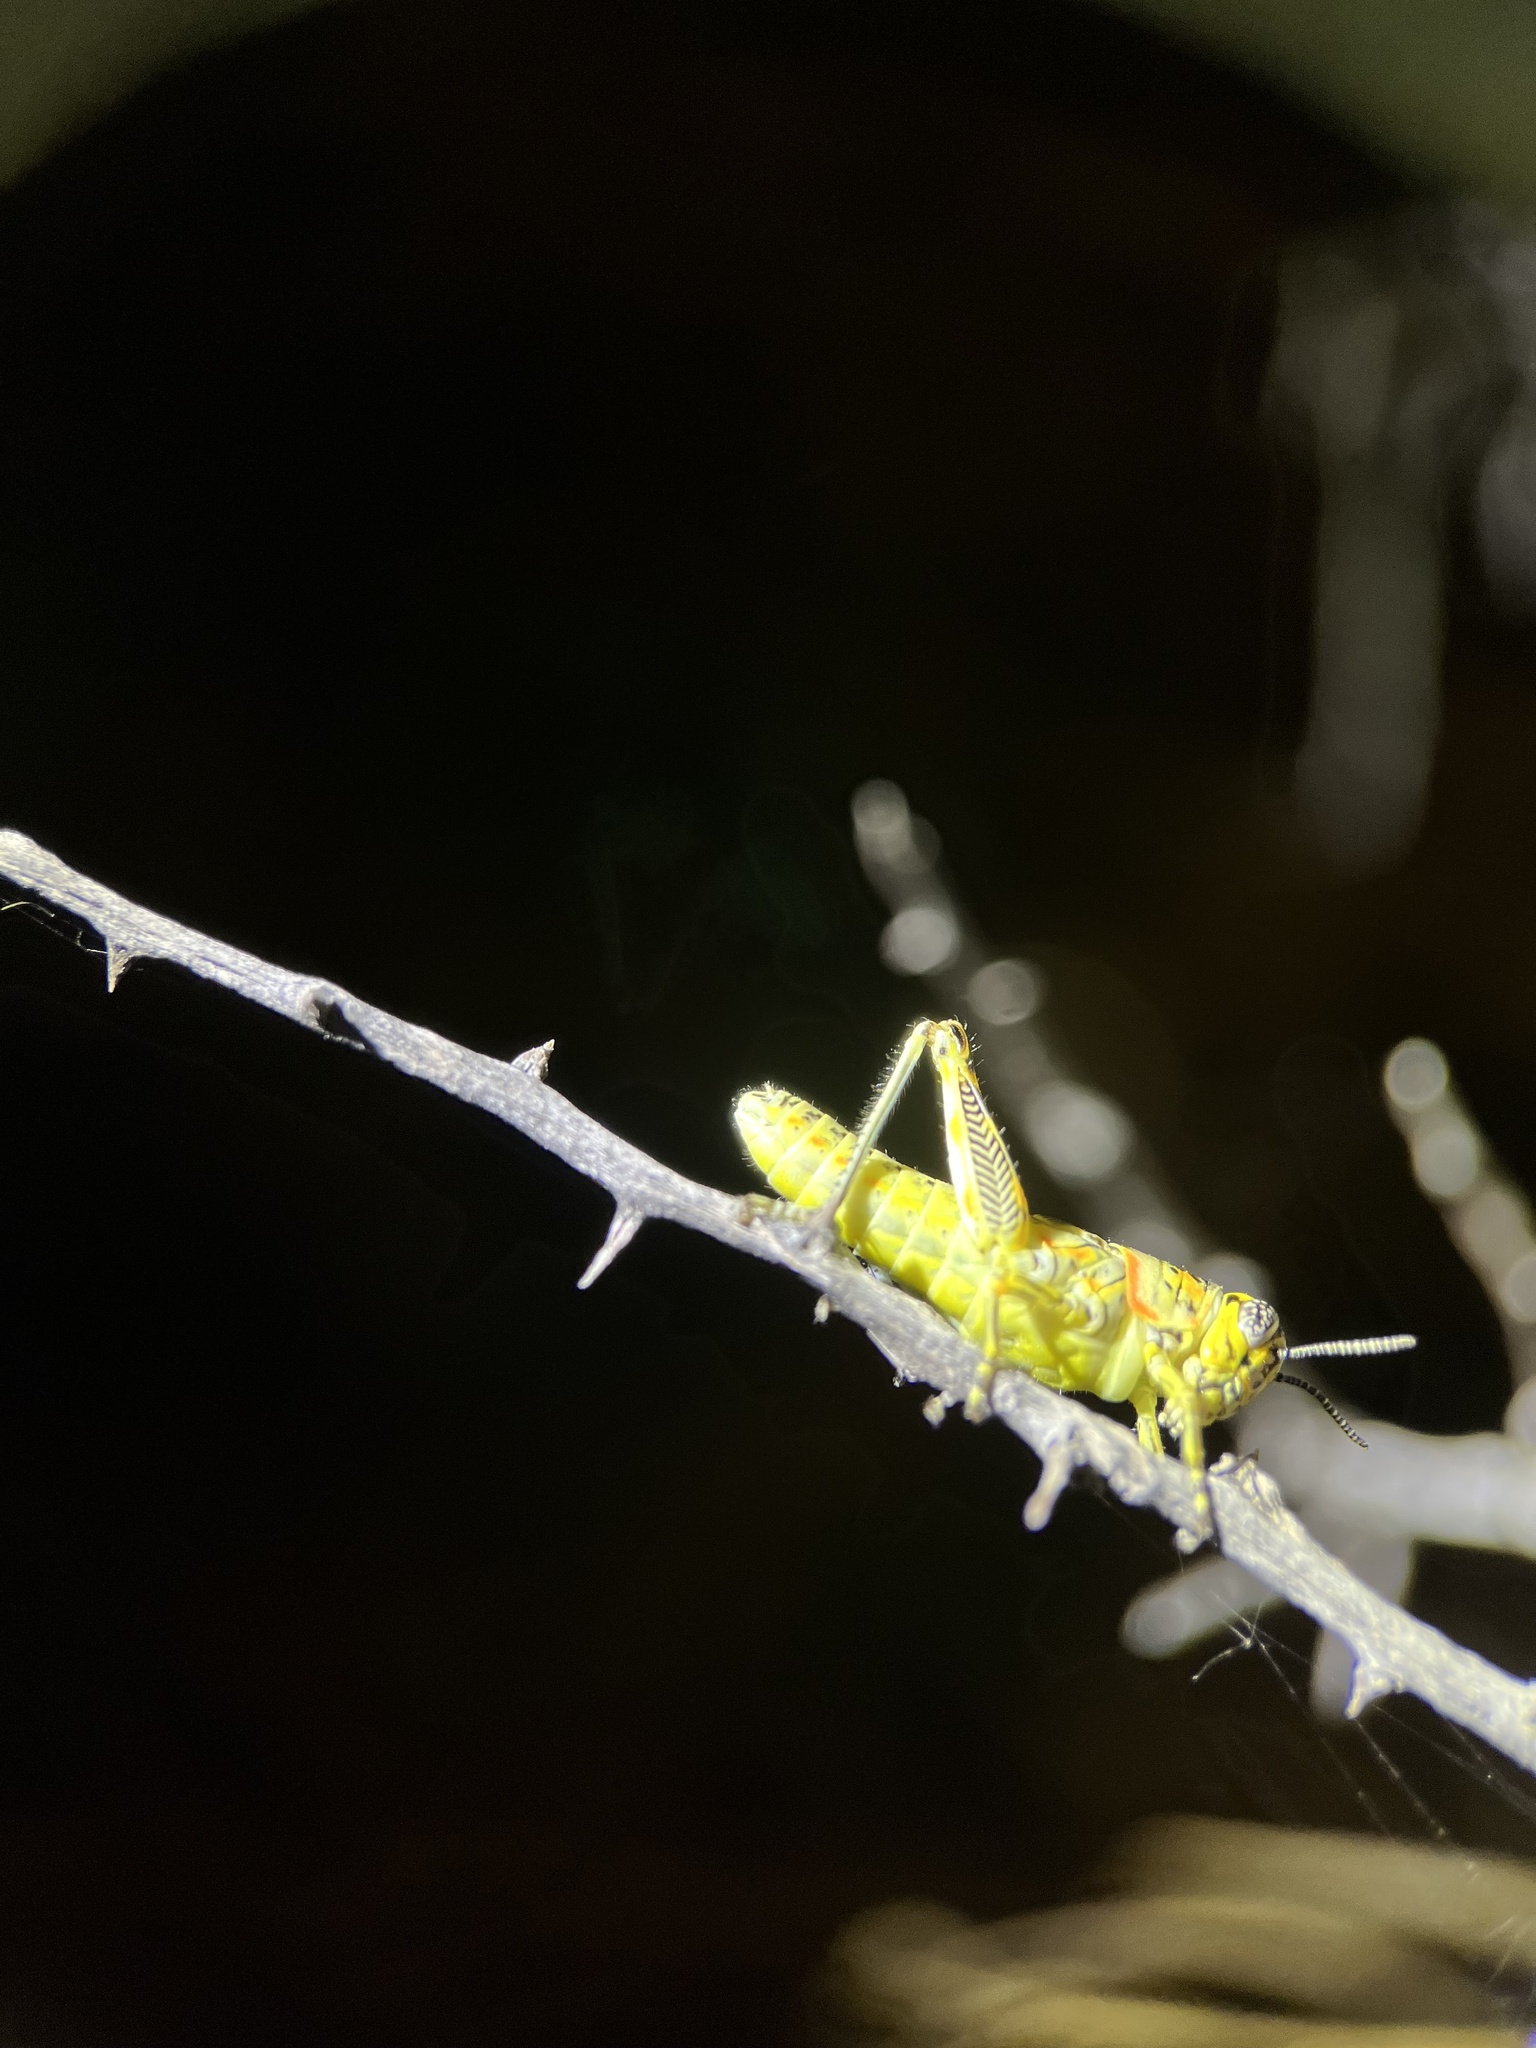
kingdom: Animalia
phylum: Arthropoda
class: Insecta
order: Orthoptera
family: Acrididae
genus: Poecilotettix
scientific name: Poecilotettix sanguineus
